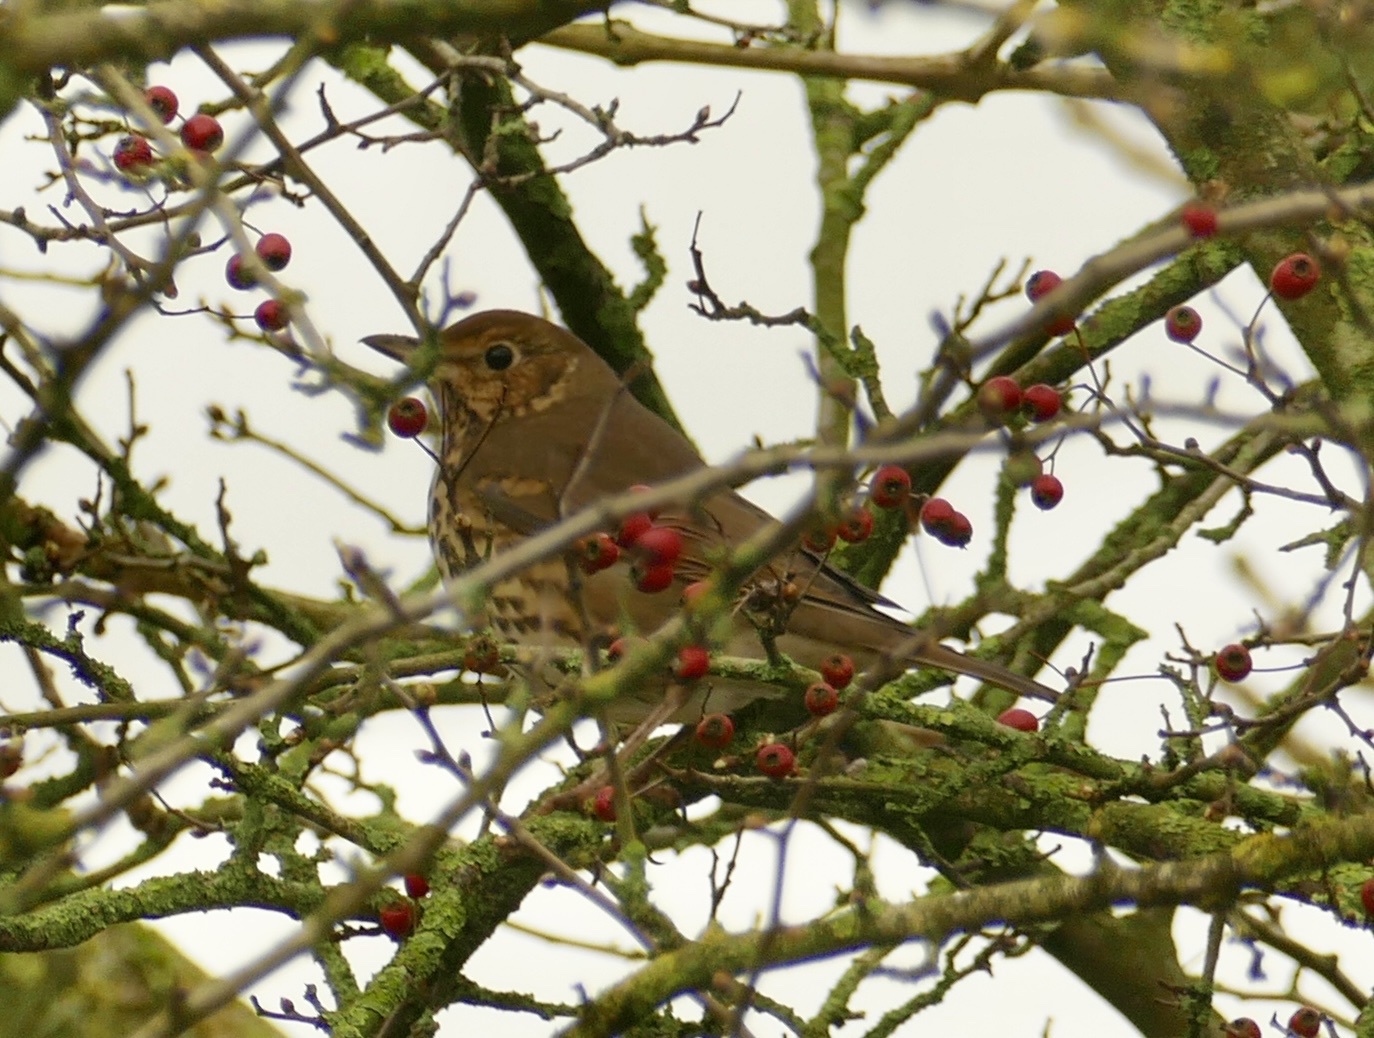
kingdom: Animalia
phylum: Chordata
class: Aves
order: Passeriformes
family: Turdidae
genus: Turdus
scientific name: Turdus philomelos
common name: Song thrush
